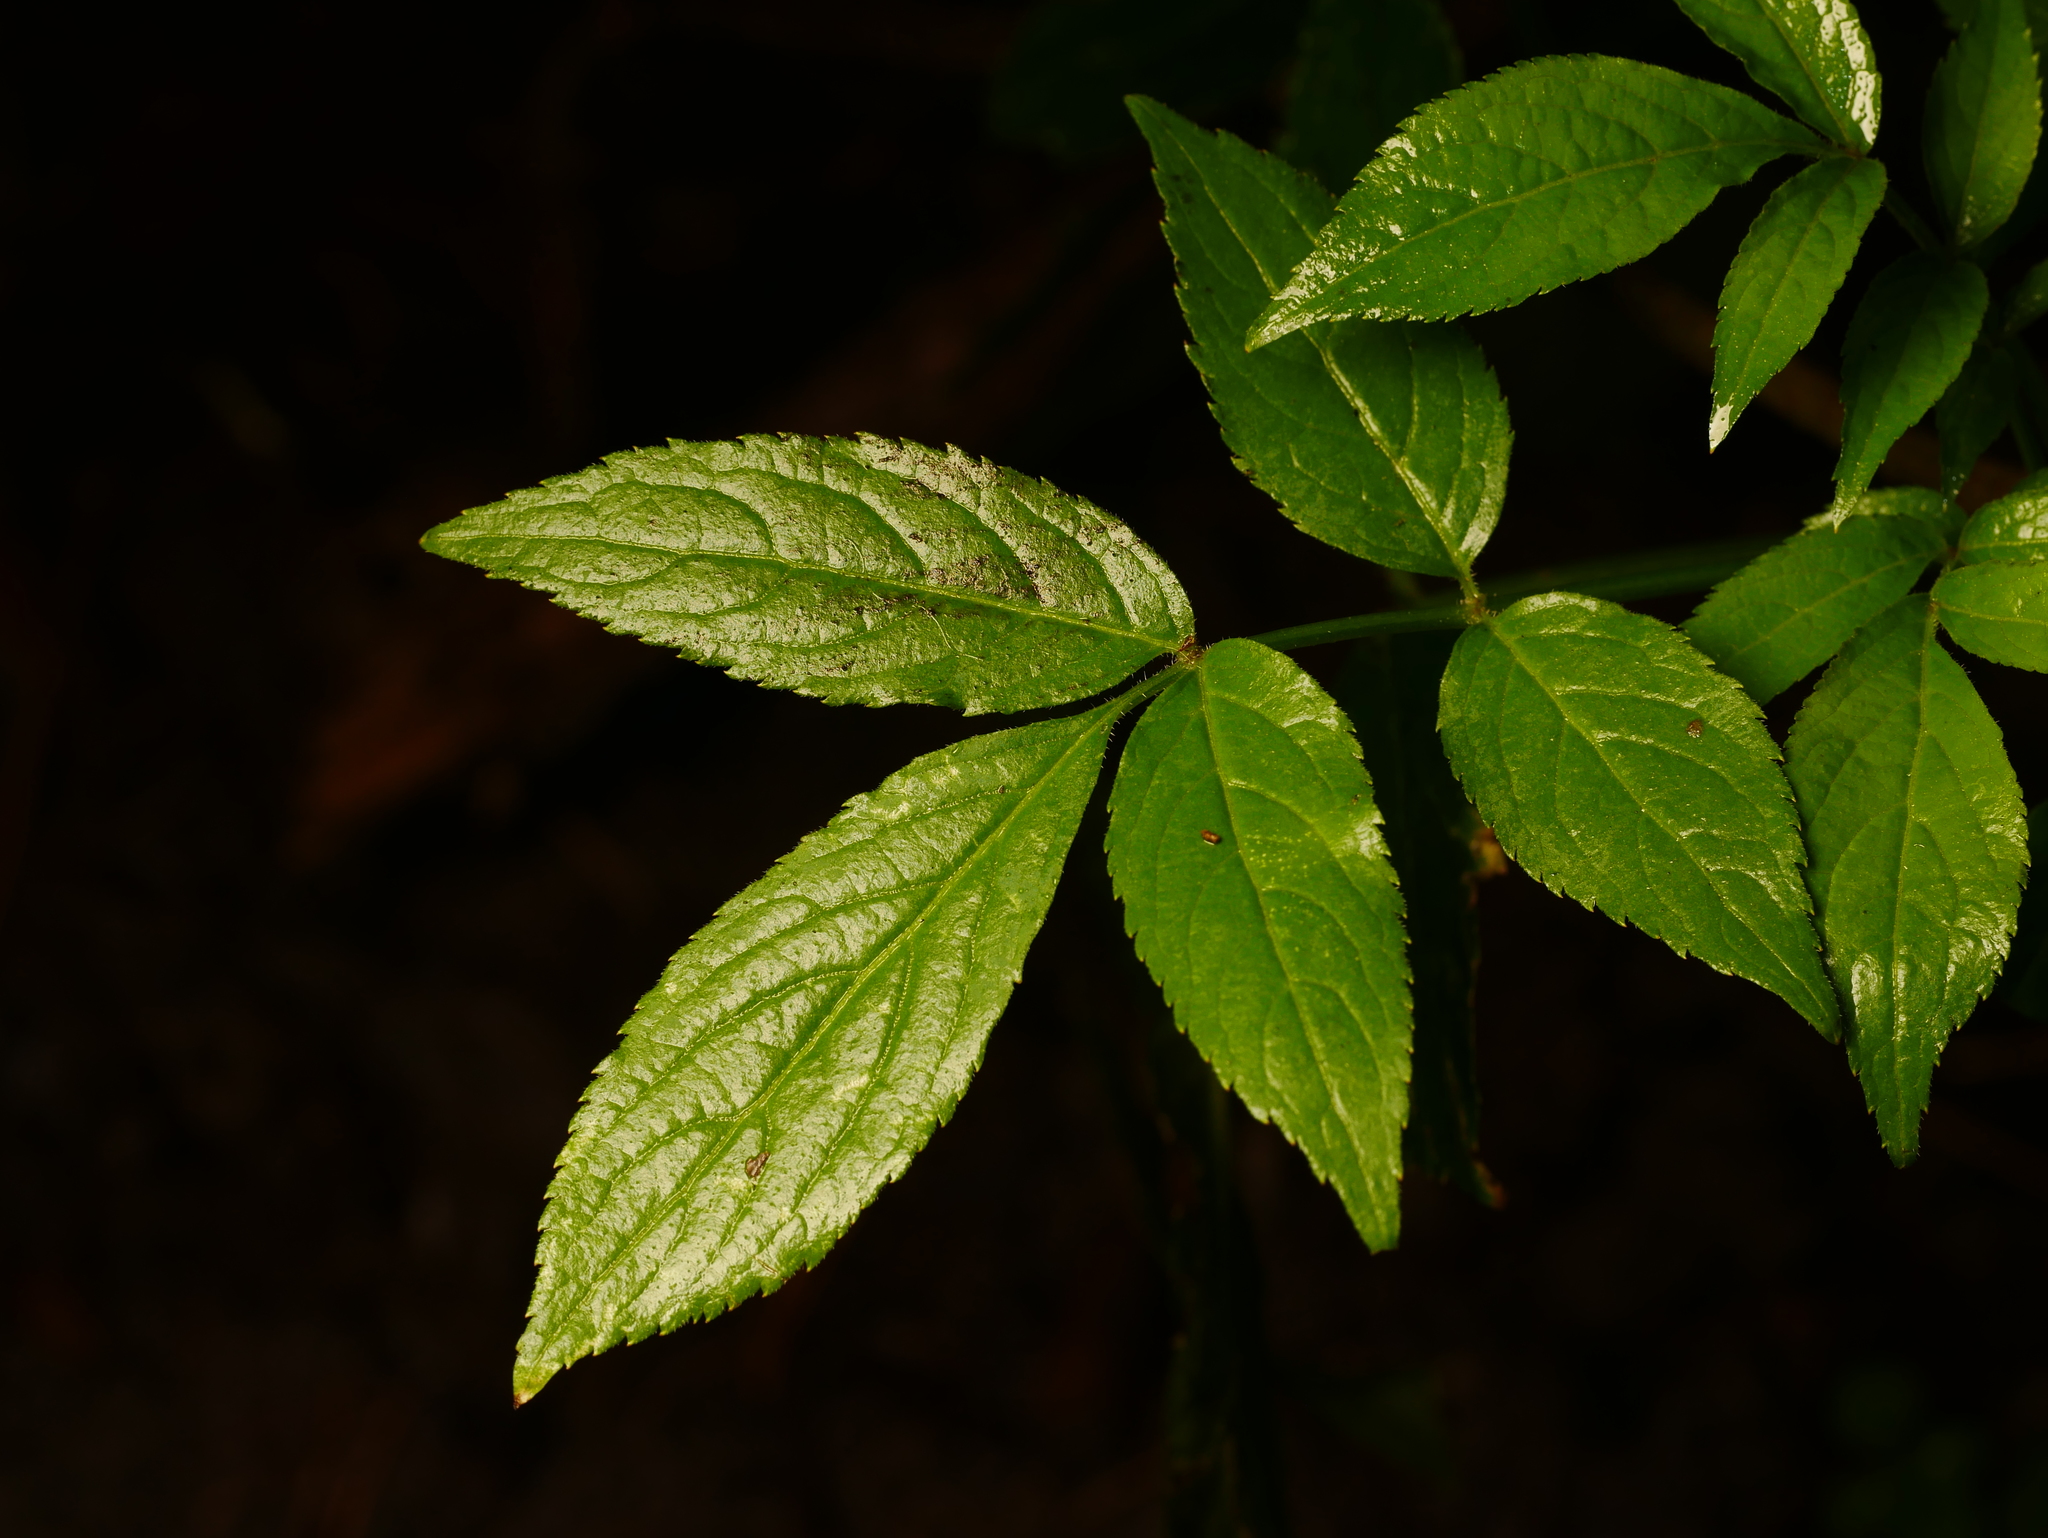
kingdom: Plantae
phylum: Tracheophyta
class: Magnoliopsida
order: Dipsacales
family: Viburnaceae
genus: Sambucus
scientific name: Sambucus nigra
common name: Elder
